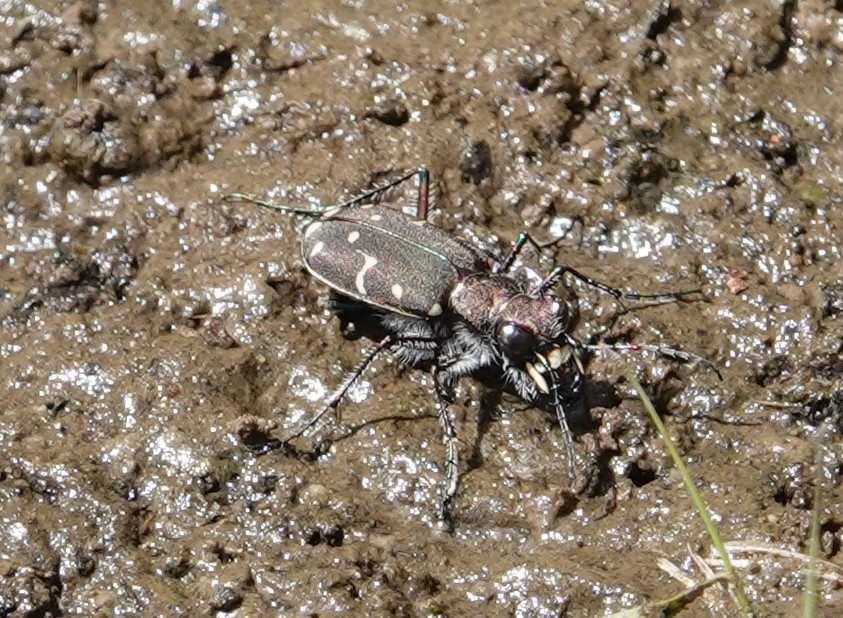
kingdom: Animalia
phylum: Arthropoda
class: Insecta
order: Coleoptera
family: Carabidae
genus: Cicindela
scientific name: Cicindela duodecimguttata
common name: Twelve-spotted tiger beetle
